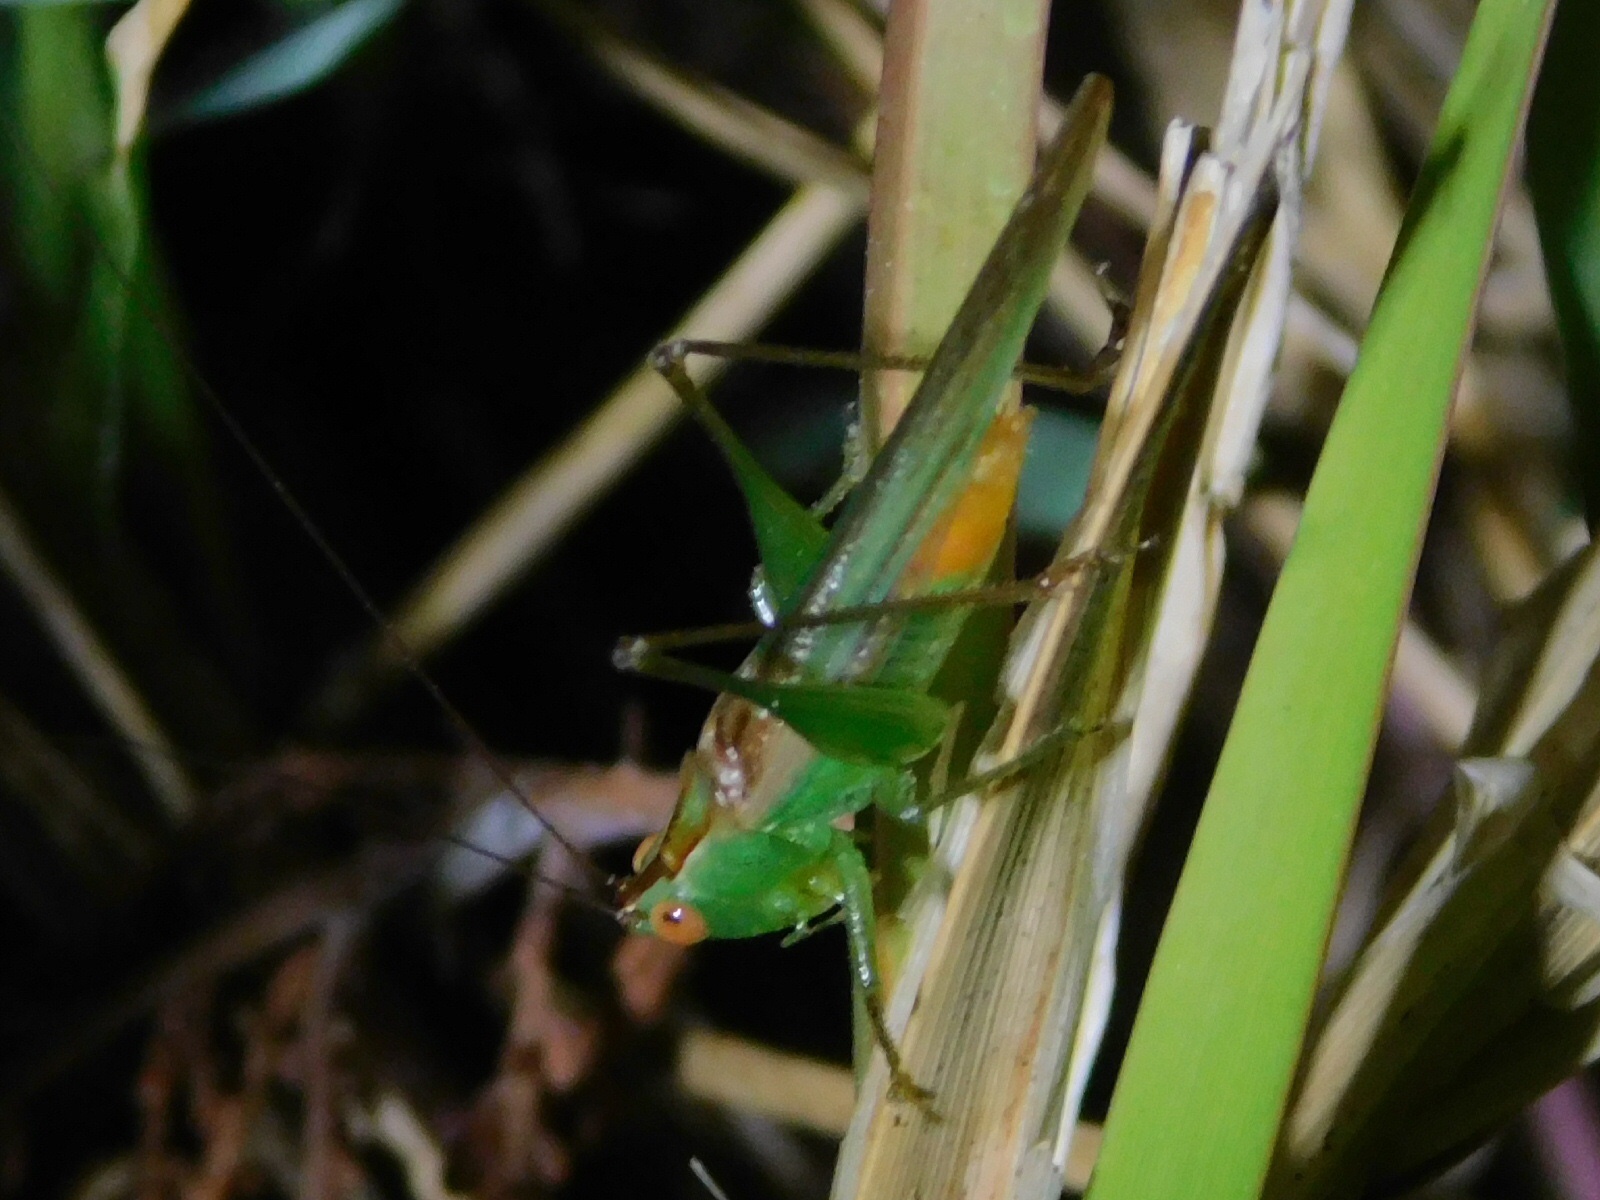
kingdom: Animalia
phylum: Arthropoda
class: Insecta
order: Orthoptera
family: Tettigoniidae
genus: Conocephalus
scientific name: Conocephalus cinereus
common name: Caribbean meadow katydid
